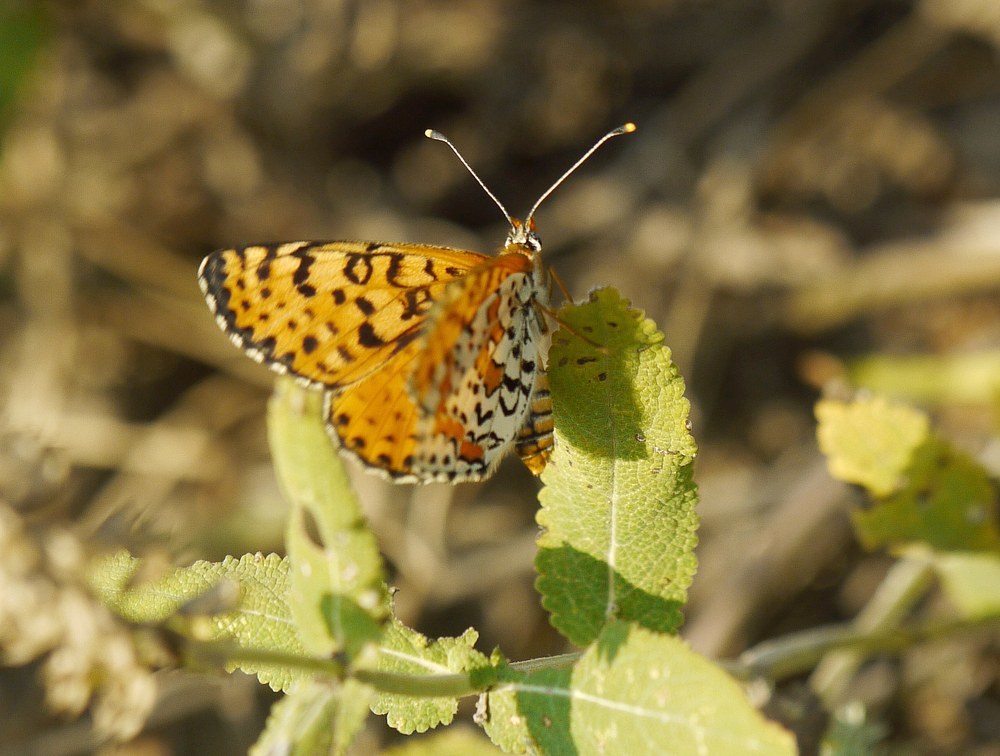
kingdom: Animalia
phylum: Arthropoda
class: Insecta
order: Lepidoptera
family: Nymphalidae
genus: Melitaea
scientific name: Melitaea didyma
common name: Spotted fritillary
